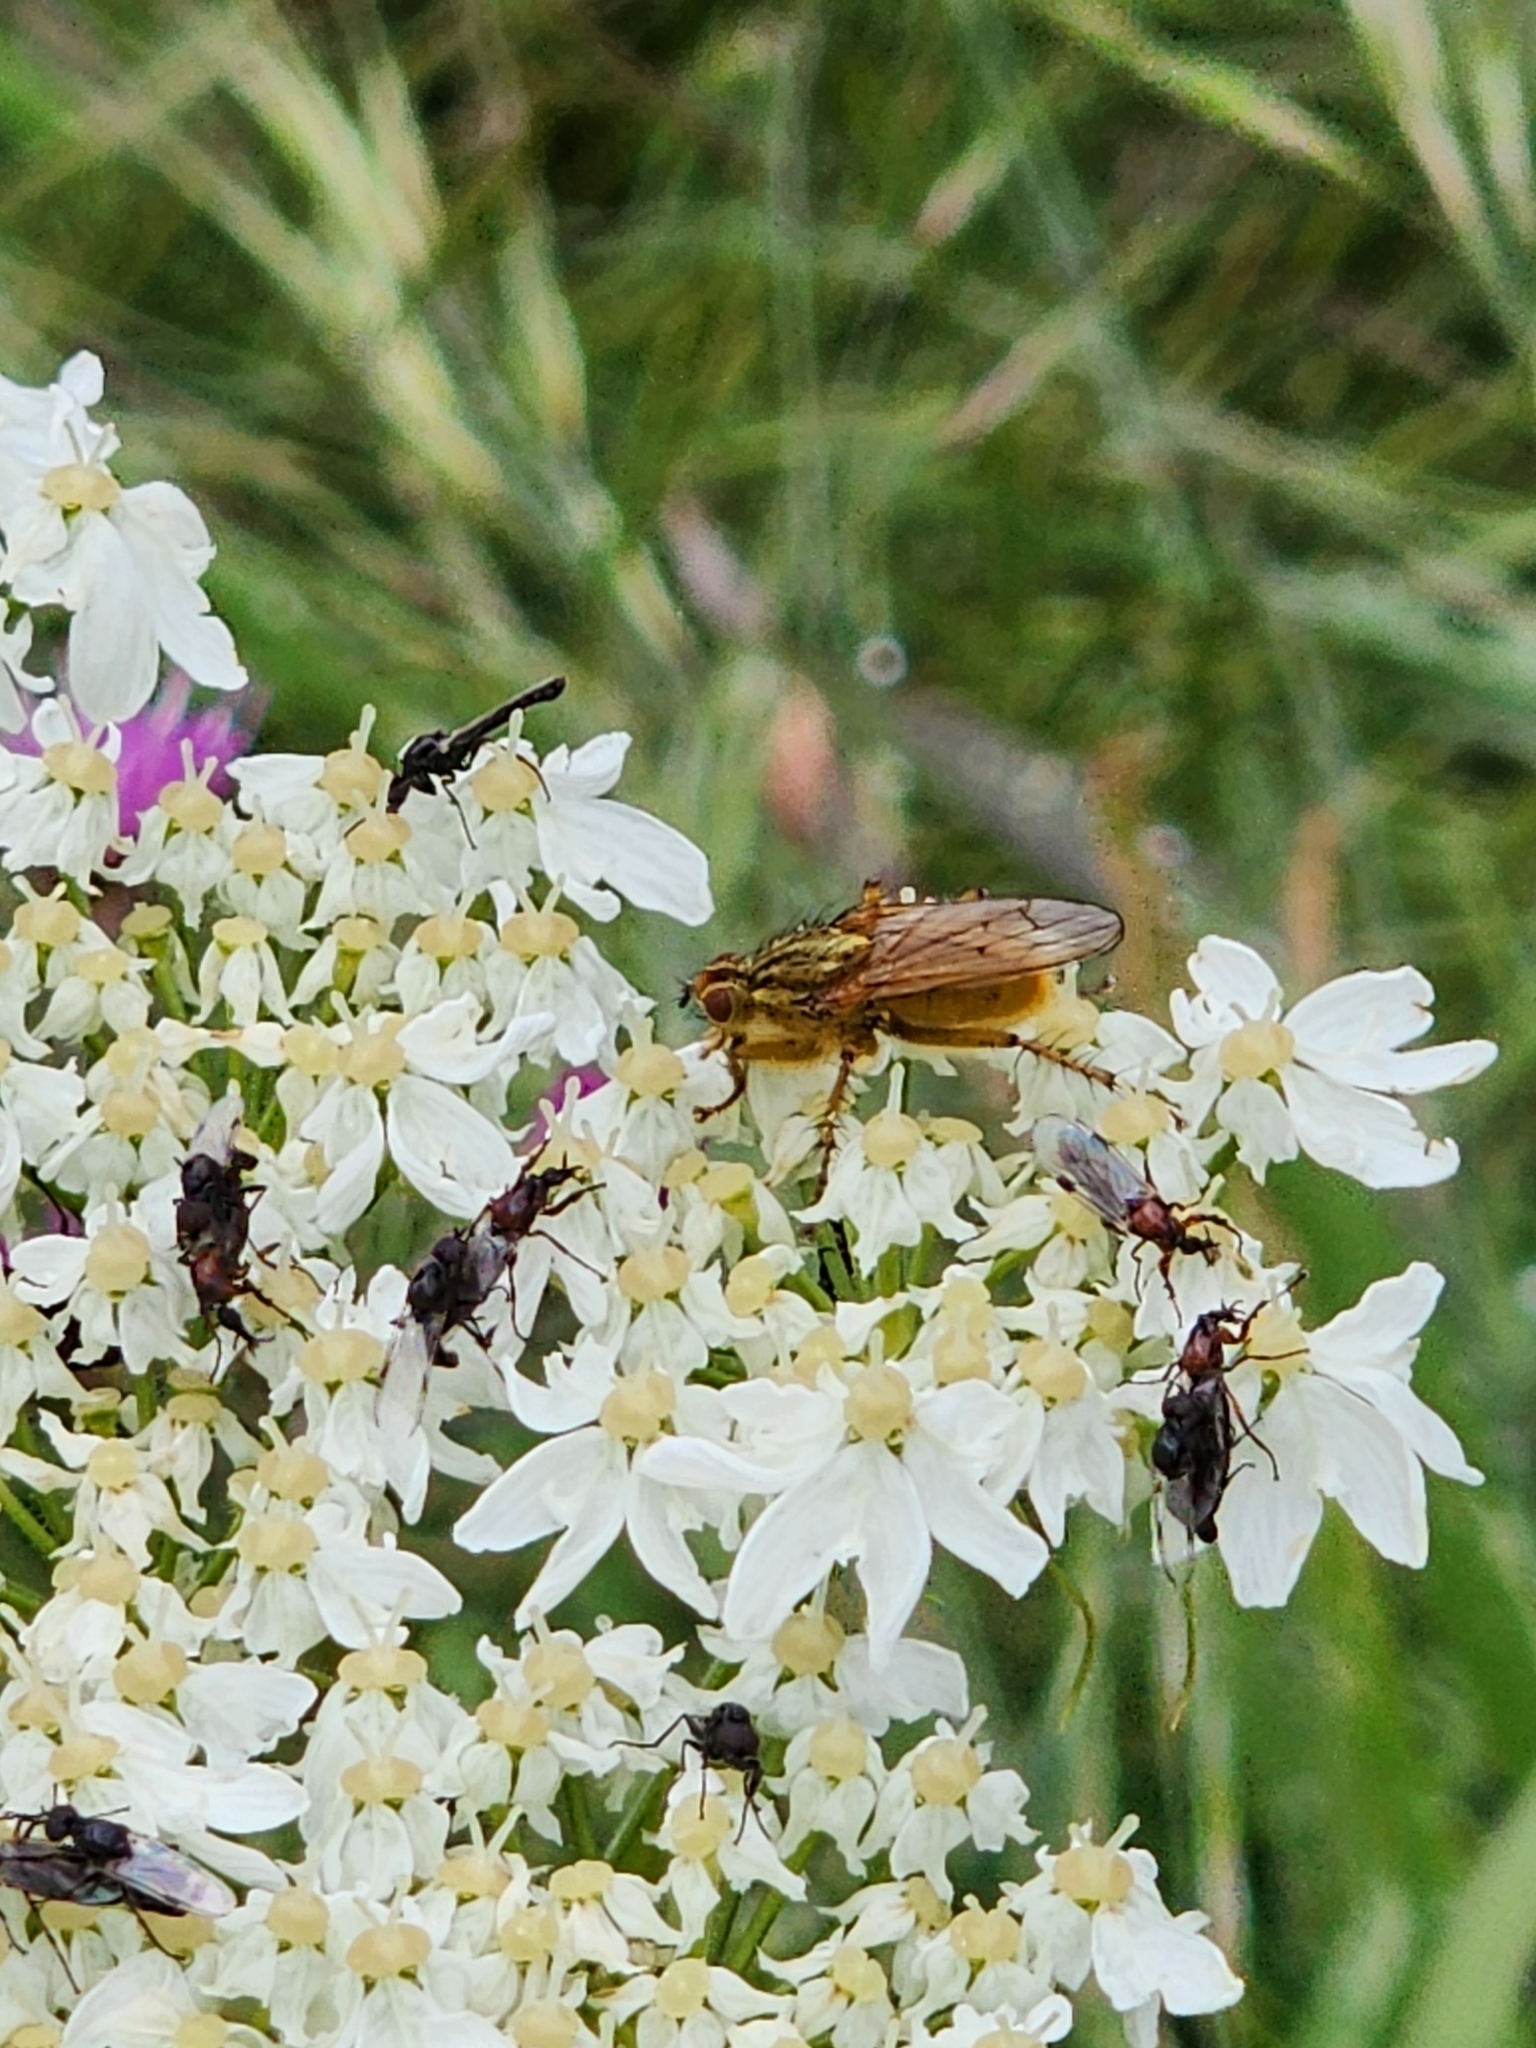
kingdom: Animalia
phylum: Arthropoda
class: Insecta
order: Diptera
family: Scathophagidae
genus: Scathophaga
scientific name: Scathophaga stercoraria
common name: Yellow dung fly
